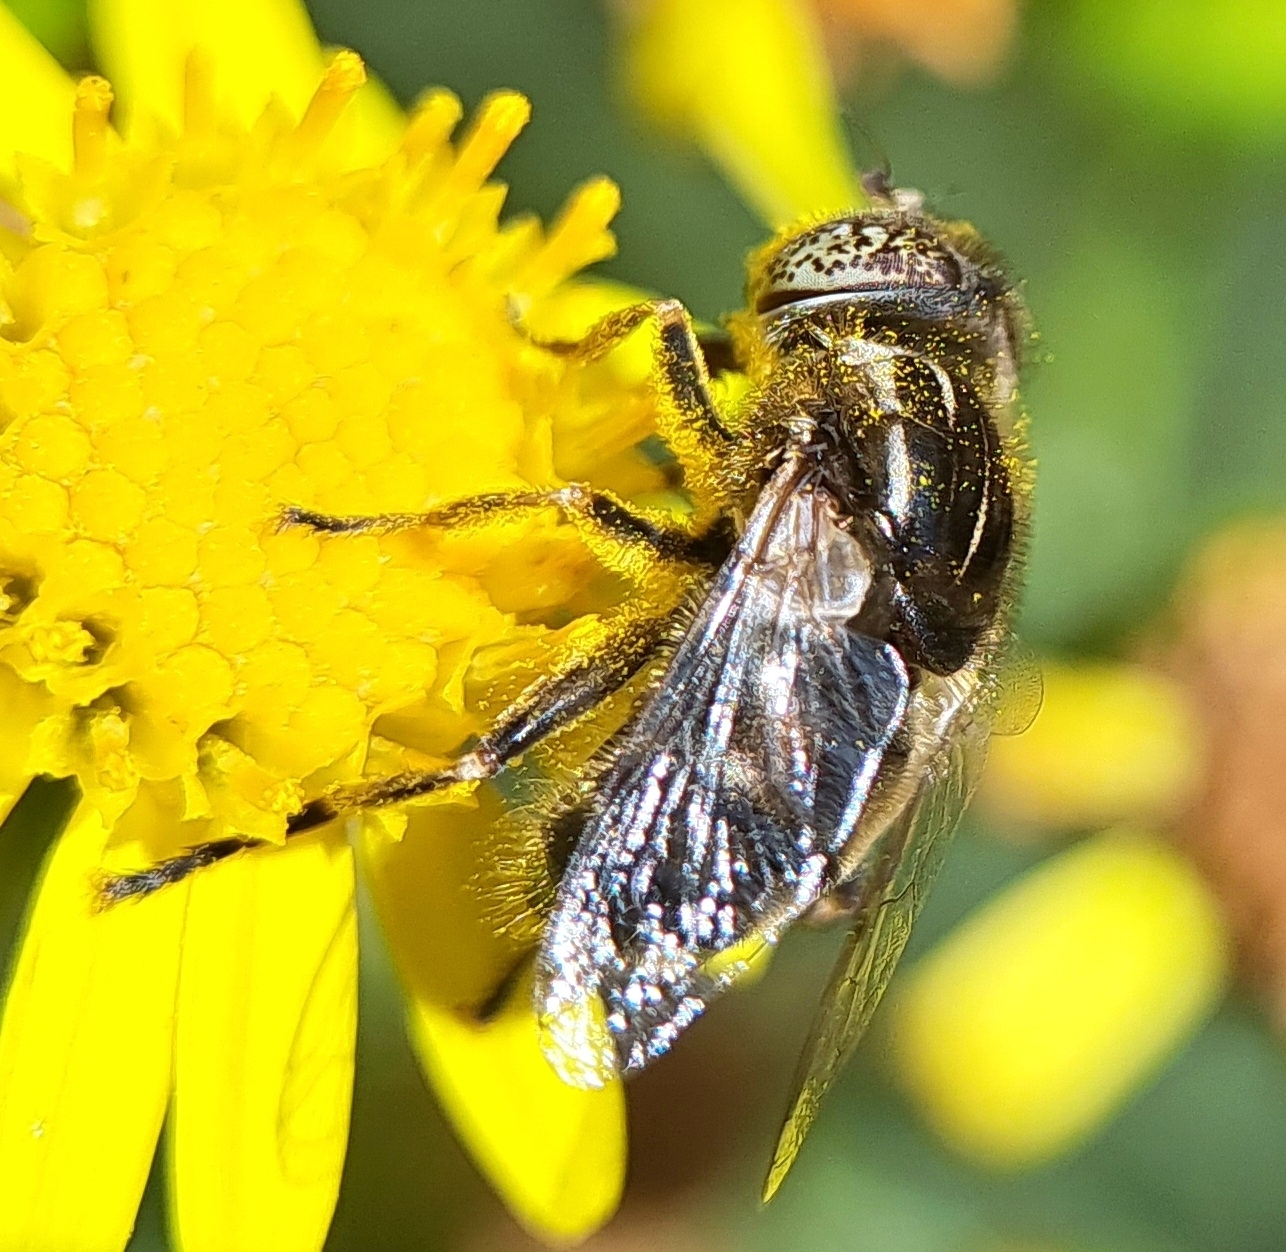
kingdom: Animalia
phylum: Arthropoda
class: Insecta
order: Diptera
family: Syrphidae
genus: Eristalinus
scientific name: Eristalinus sepulchralis
